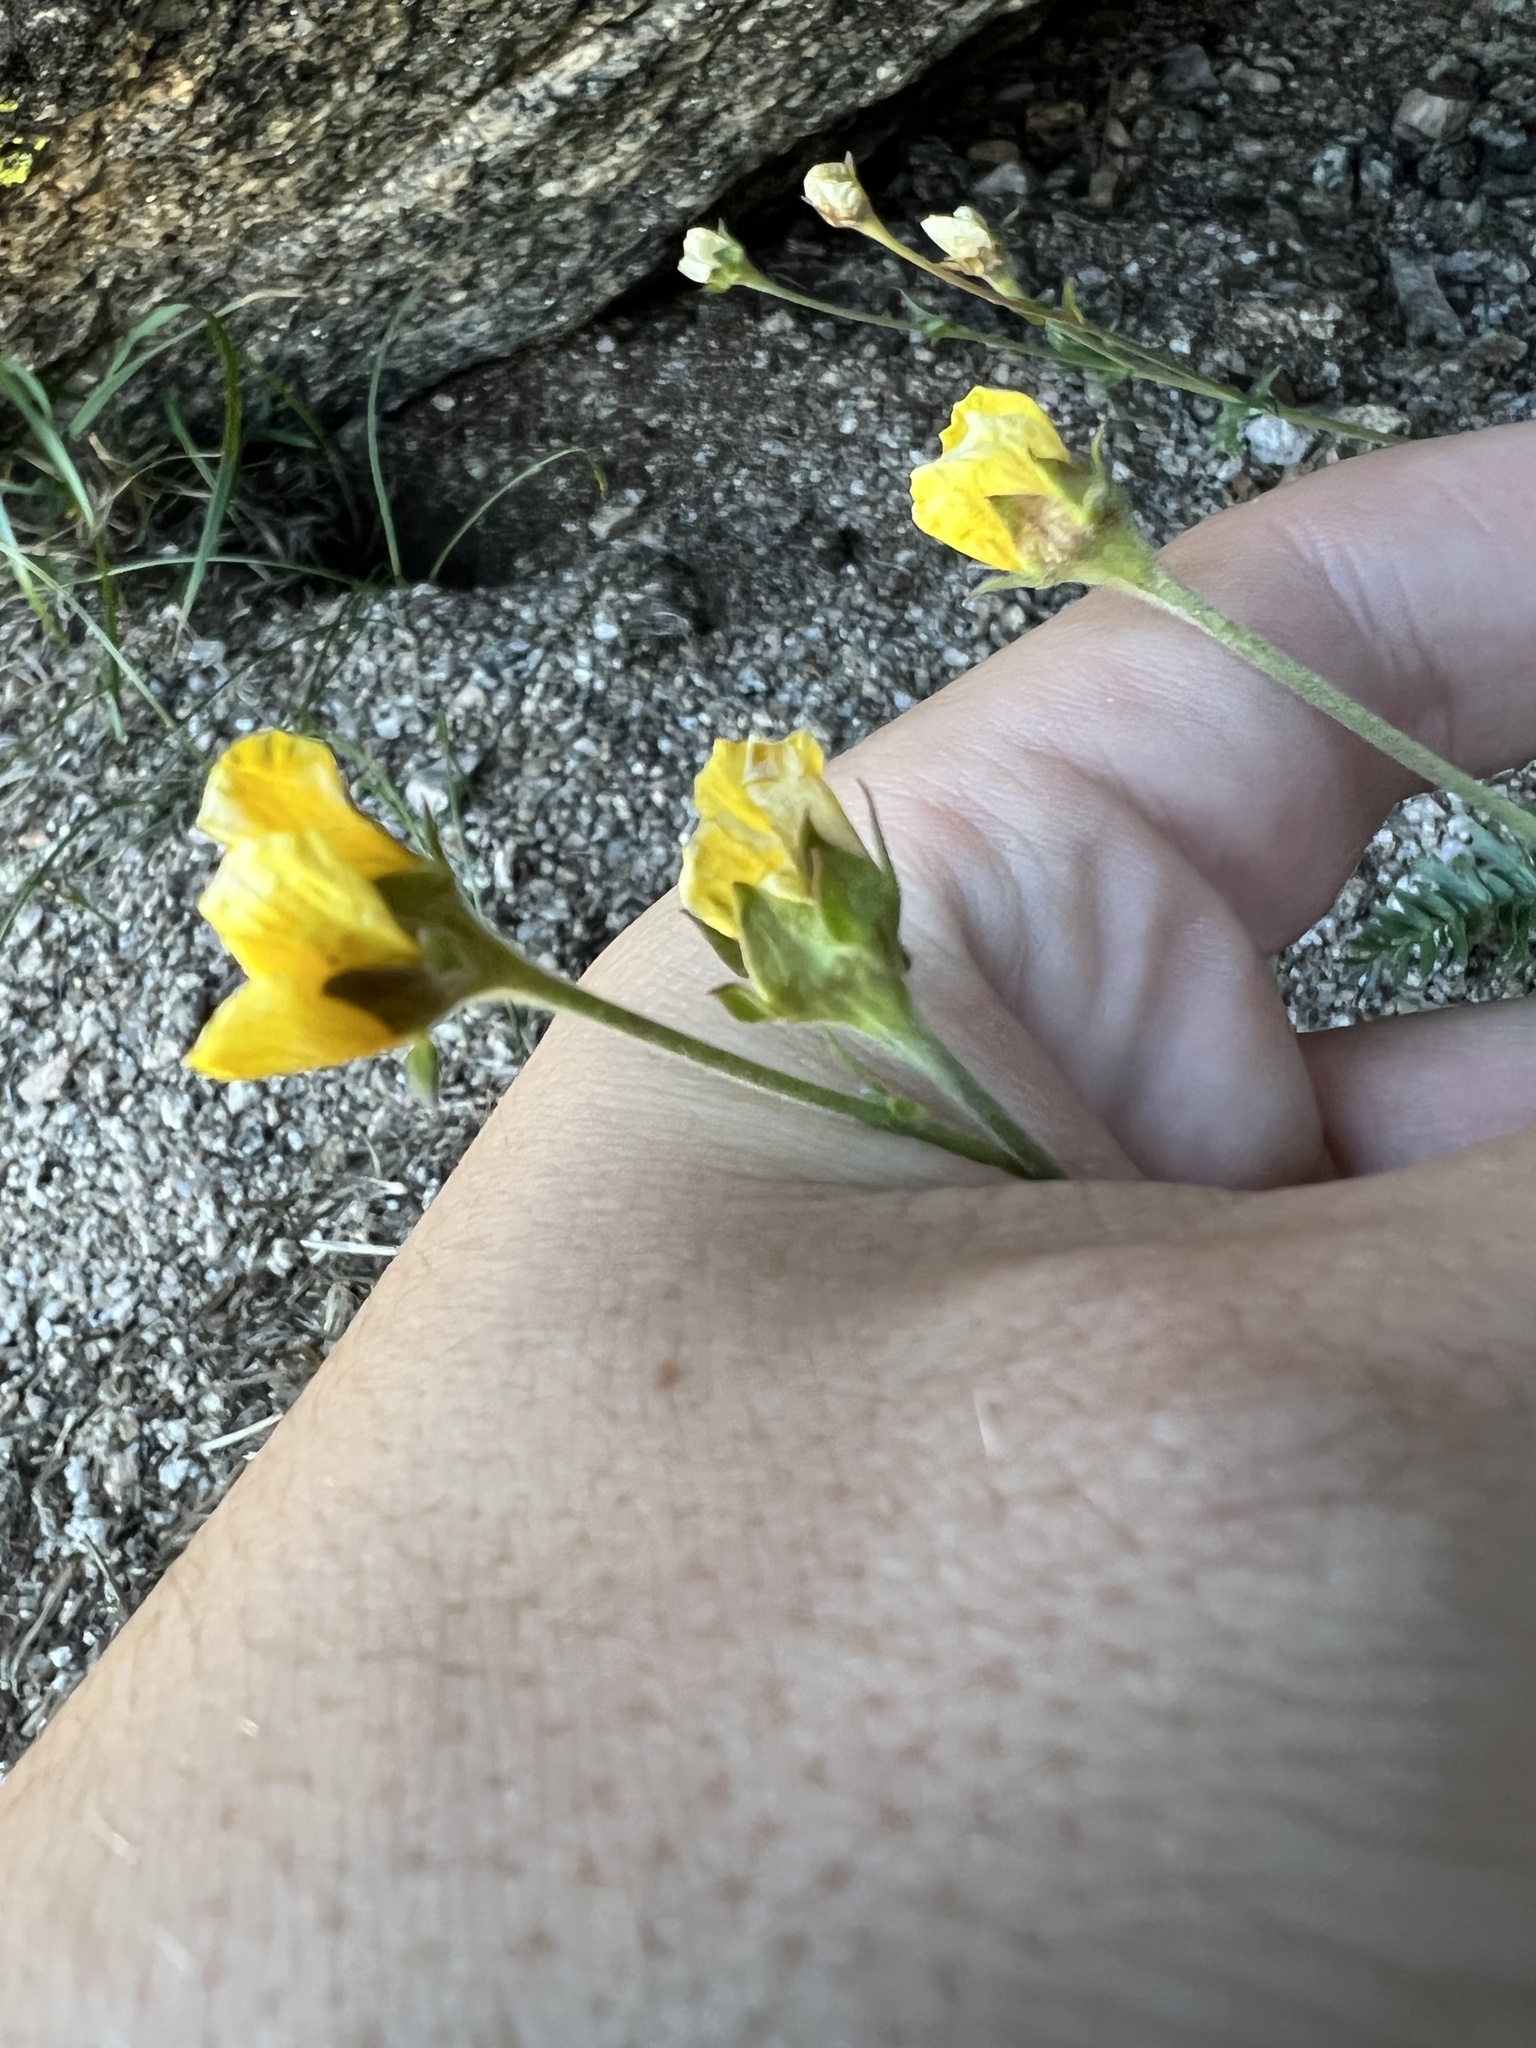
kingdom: Plantae
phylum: Tracheophyta
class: Magnoliopsida
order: Rosales
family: Rosaceae
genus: Geum
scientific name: Geum rossii
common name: Alpine avens
